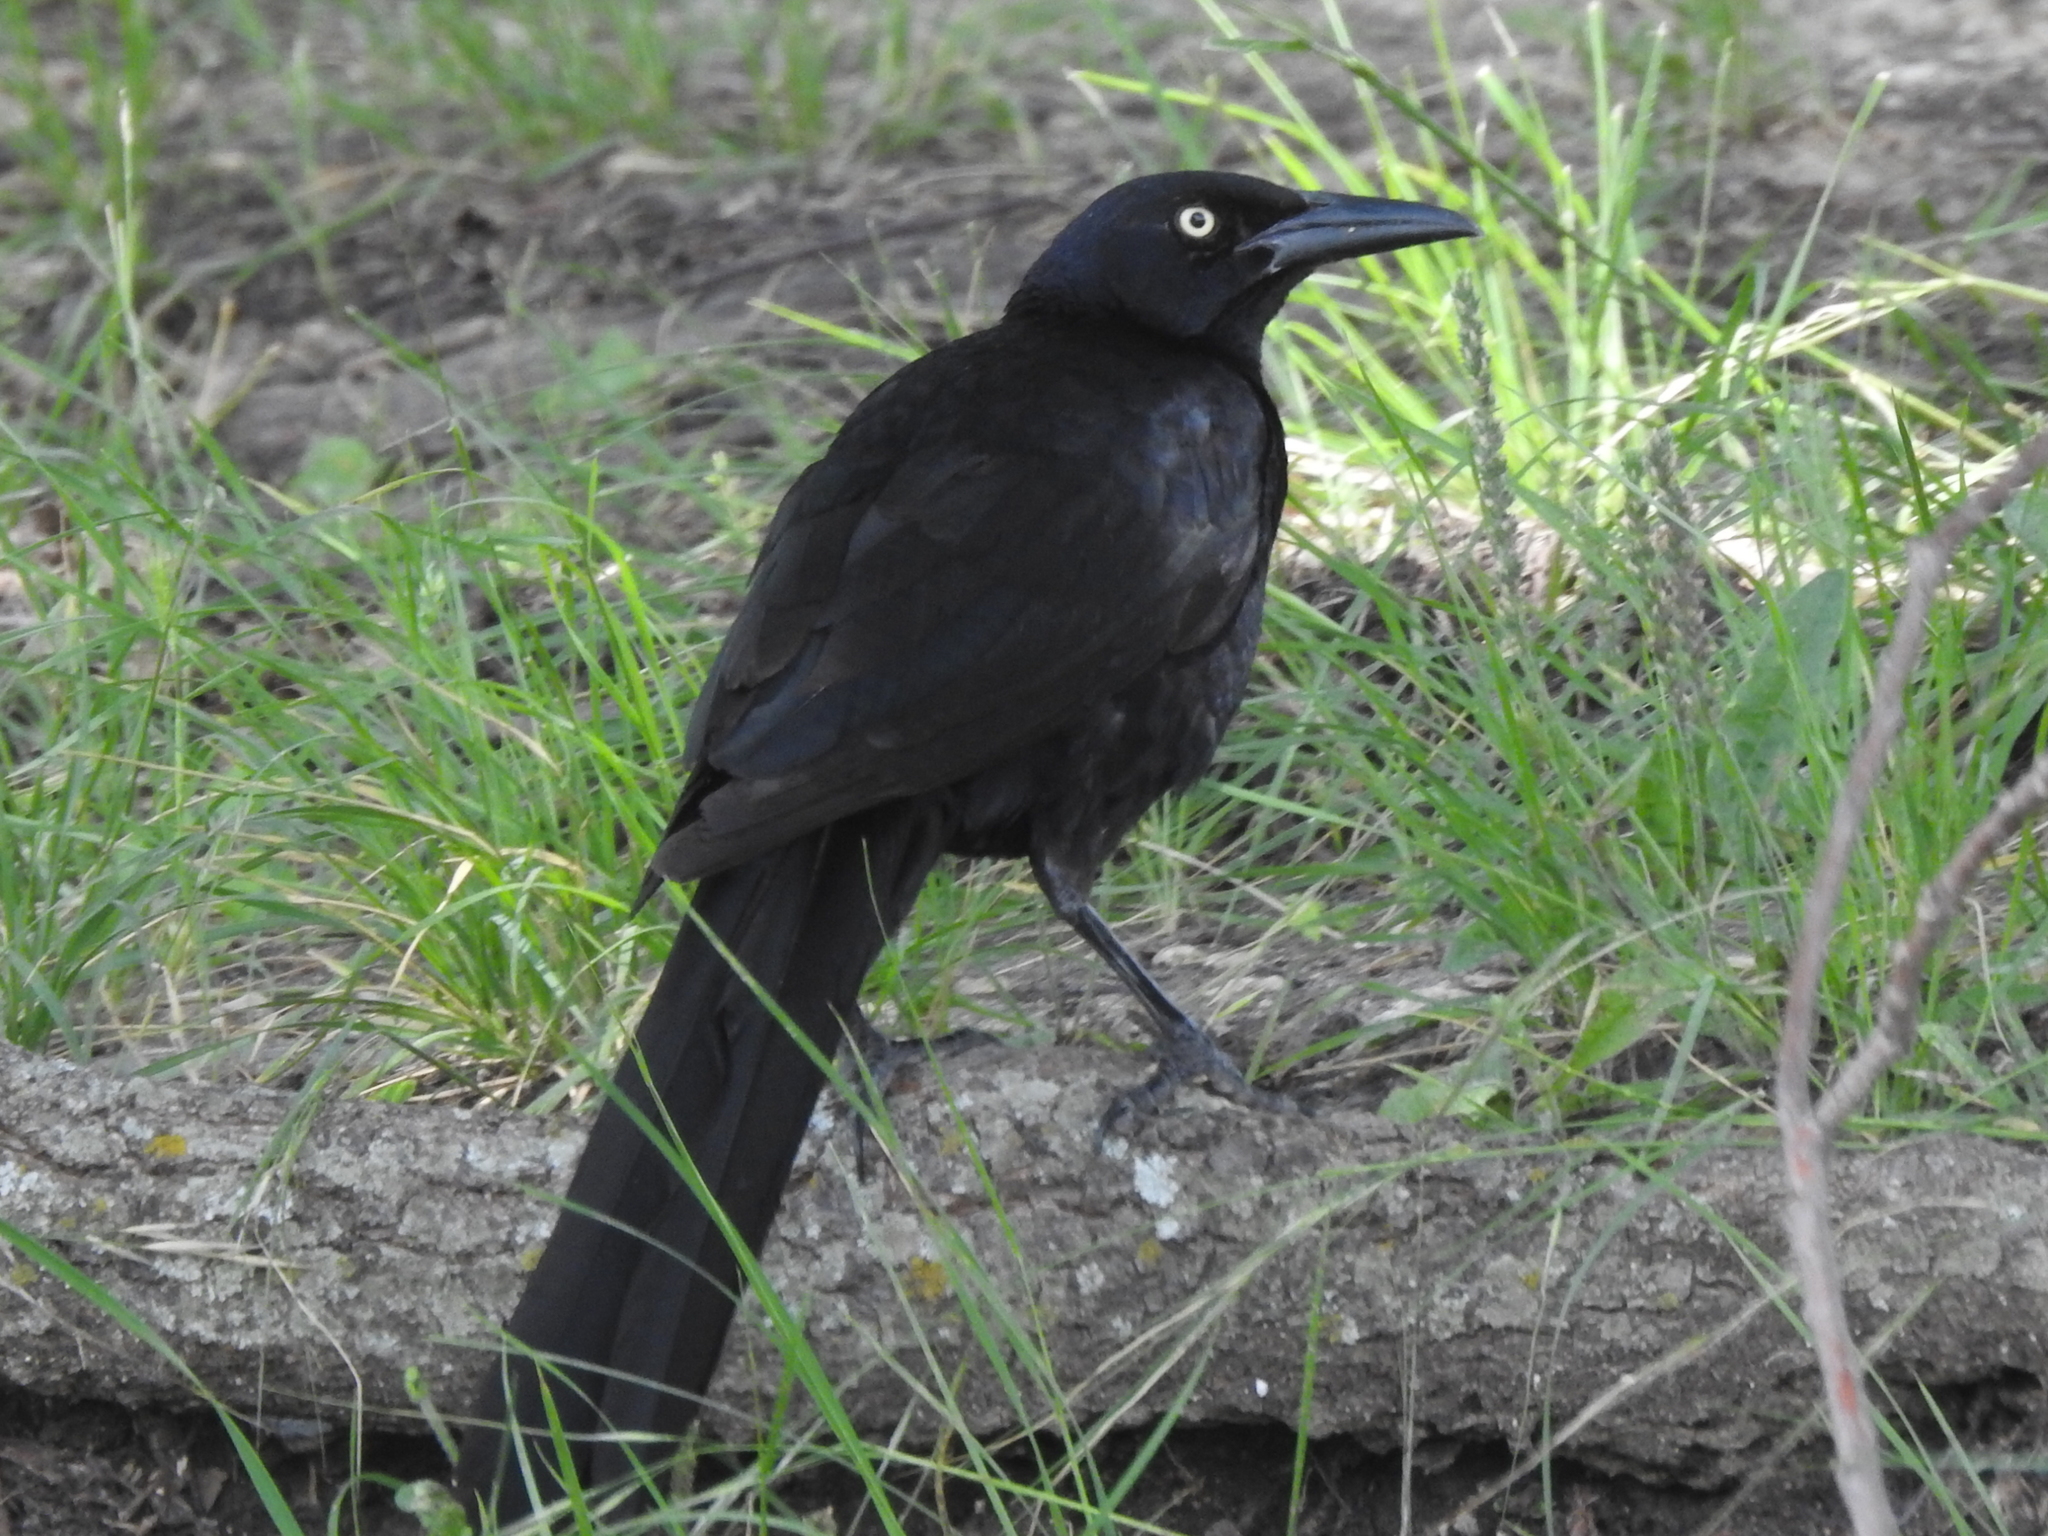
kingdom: Animalia
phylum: Chordata
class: Aves
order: Passeriformes
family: Icteridae
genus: Quiscalus
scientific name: Quiscalus mexicanus
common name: Great-tailed grackle
